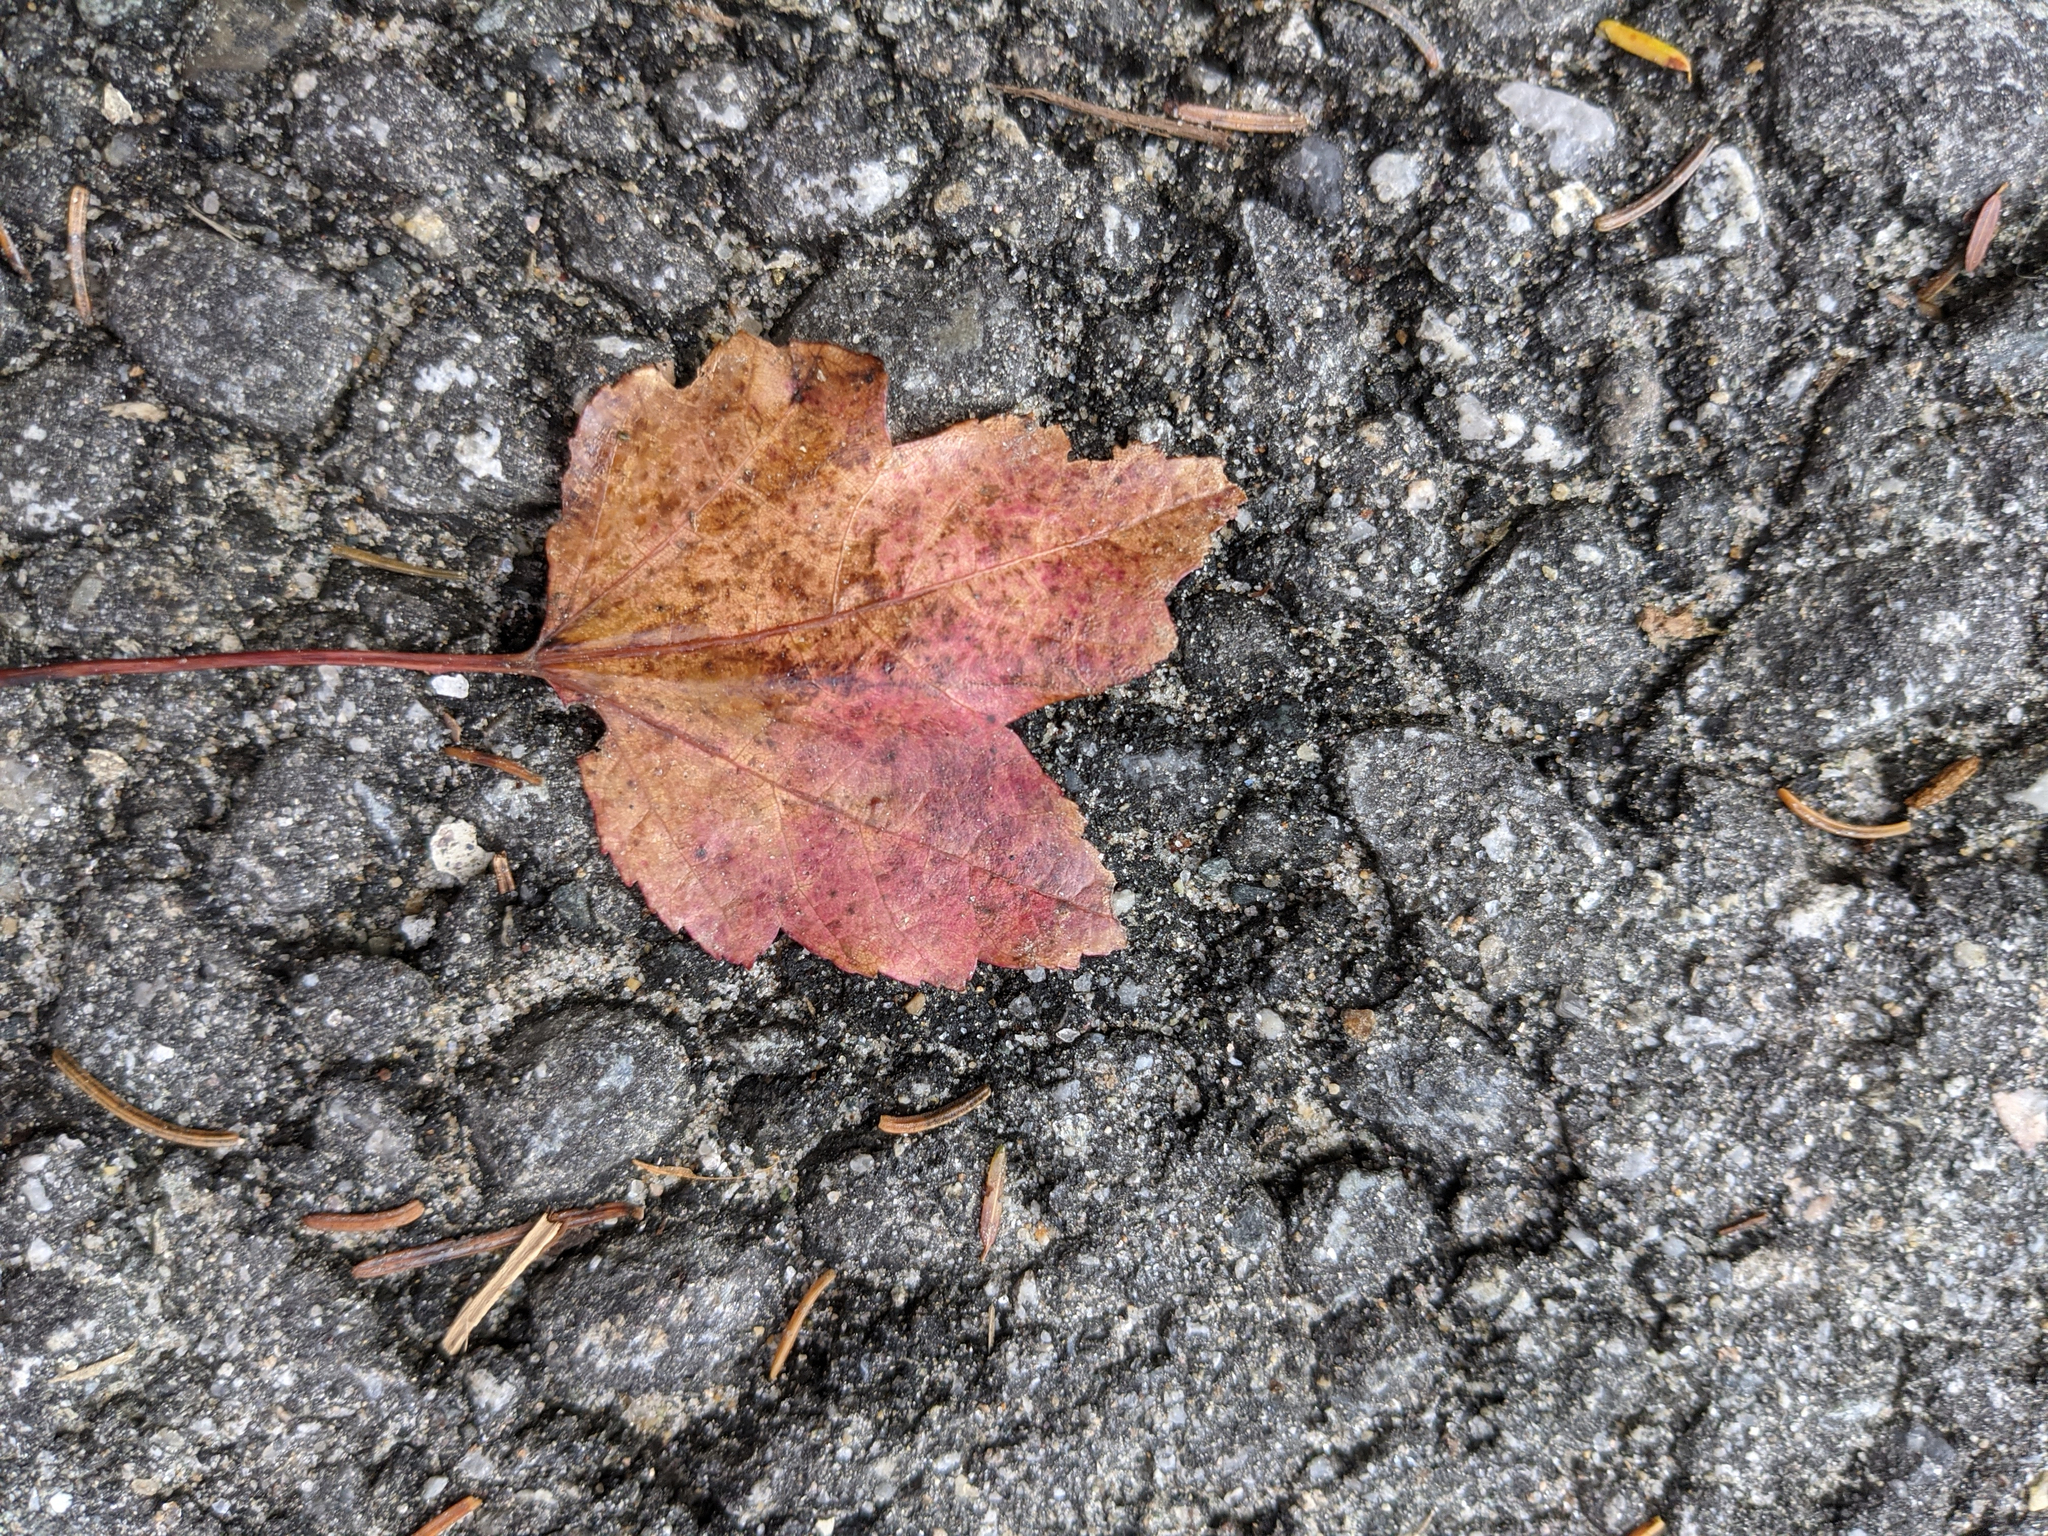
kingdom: Plantae
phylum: Tracheophyta
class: Magnoliopsida
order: Sapindales
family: Sapindaceae
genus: Acer
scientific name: Acer rubrum
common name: Red maple
